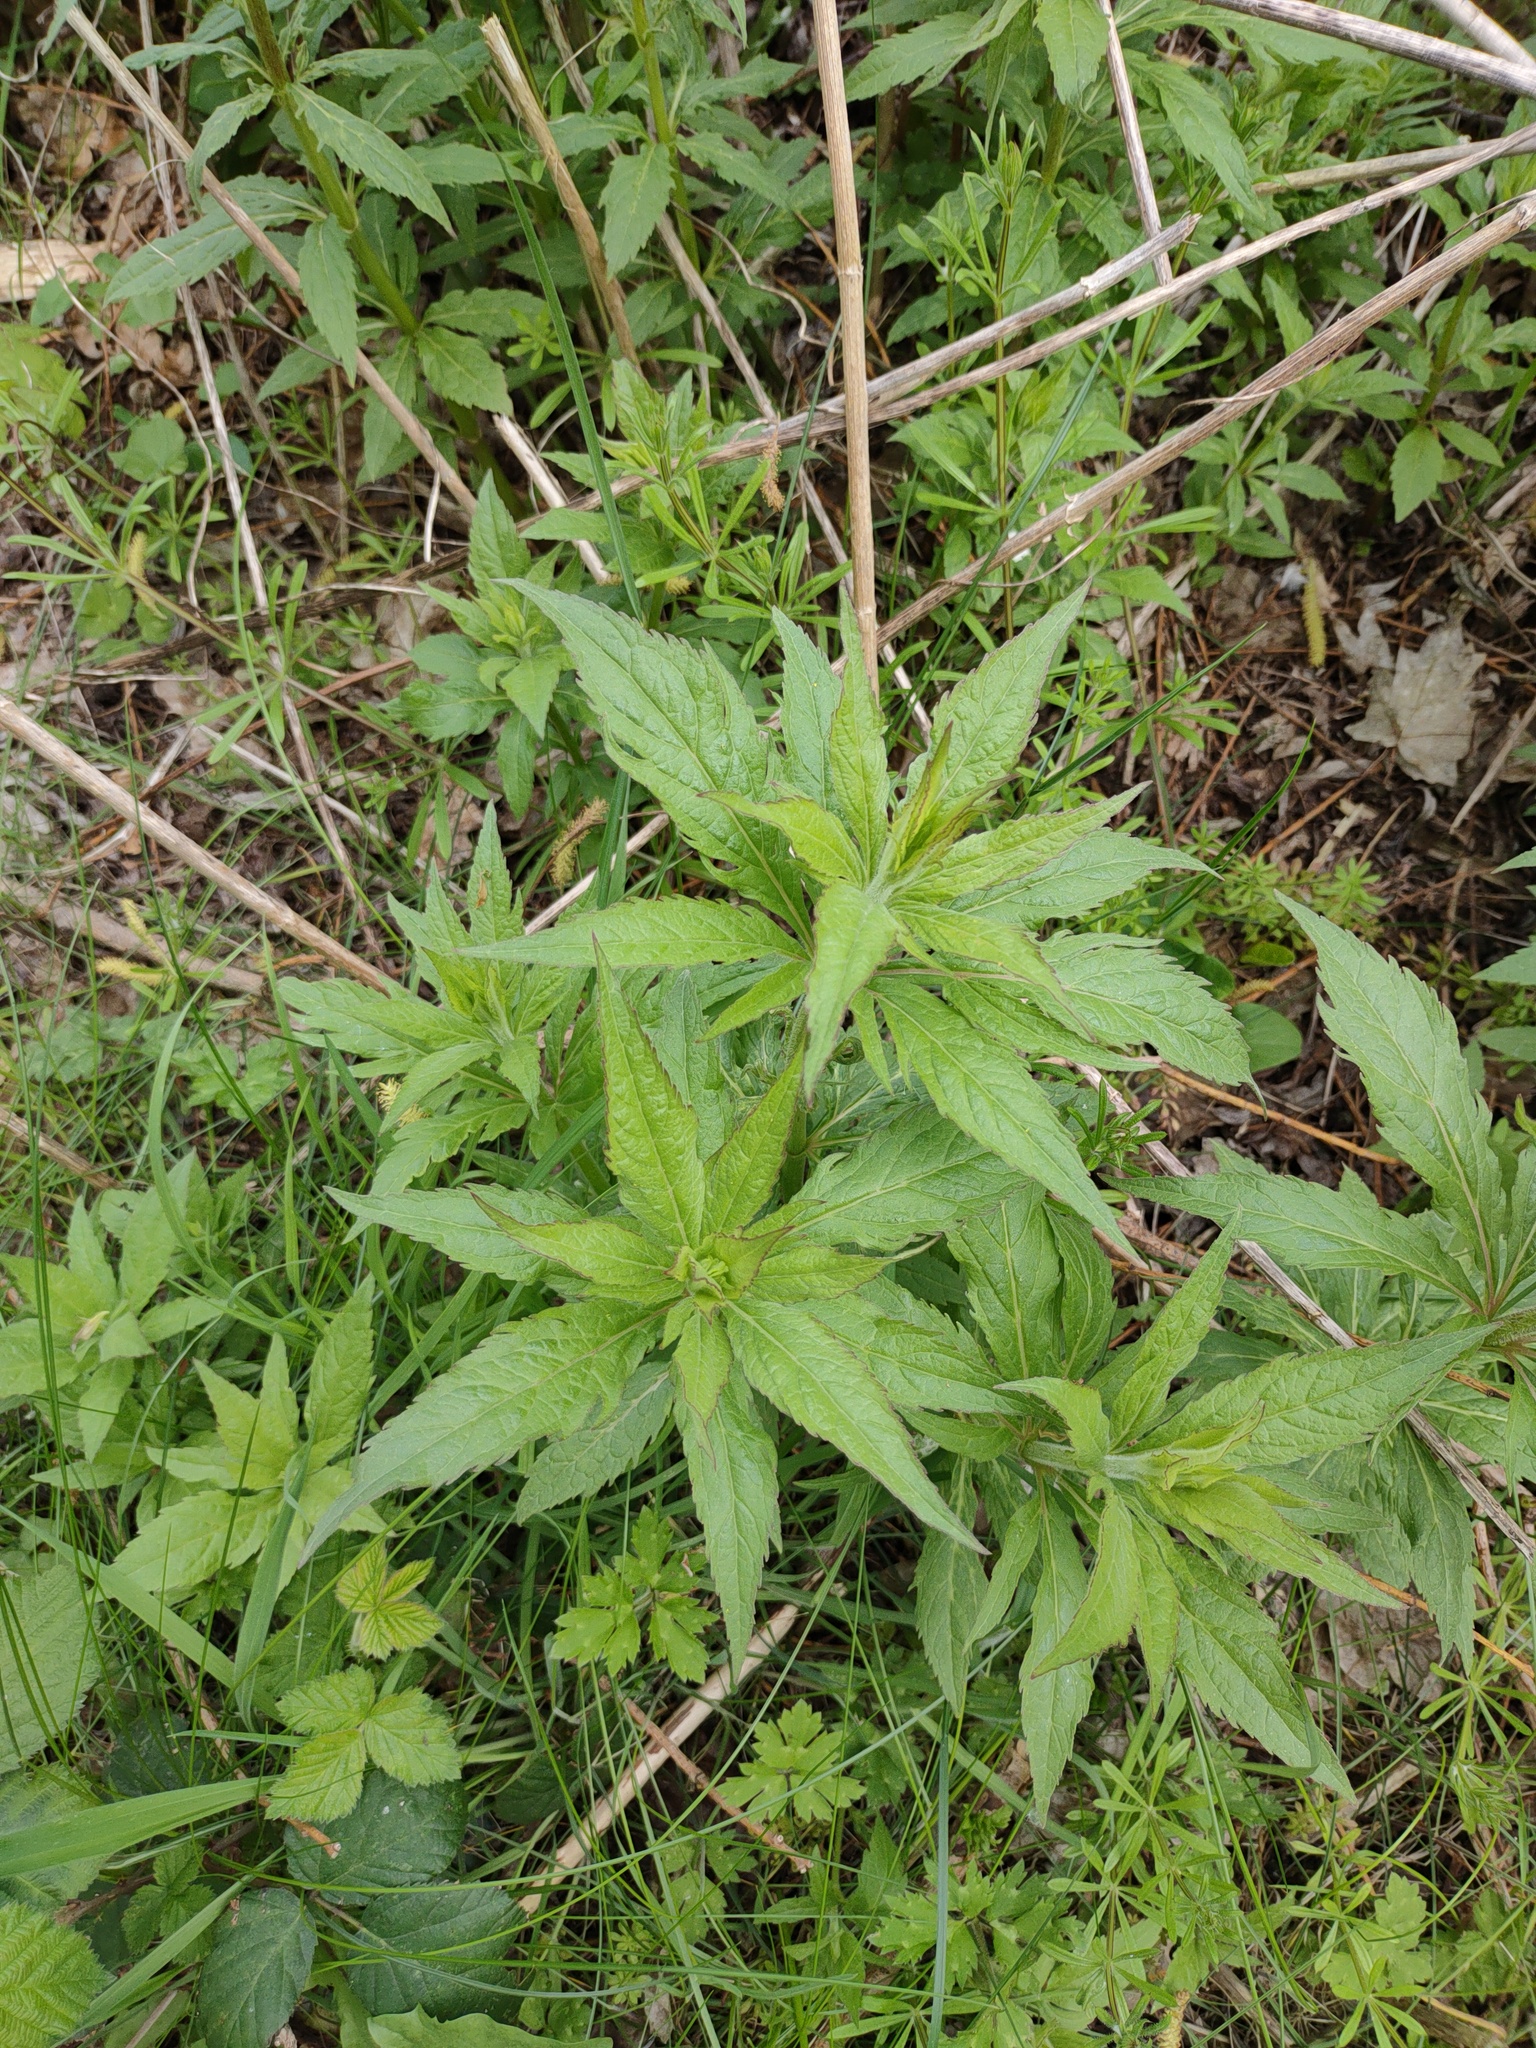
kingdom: Plantae
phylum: Tracheophyta
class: Magnoliopsida
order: Asterales
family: Asteraceae
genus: Eupatorium
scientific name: Eupatorium cannabinum
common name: Hemp-agrimony
